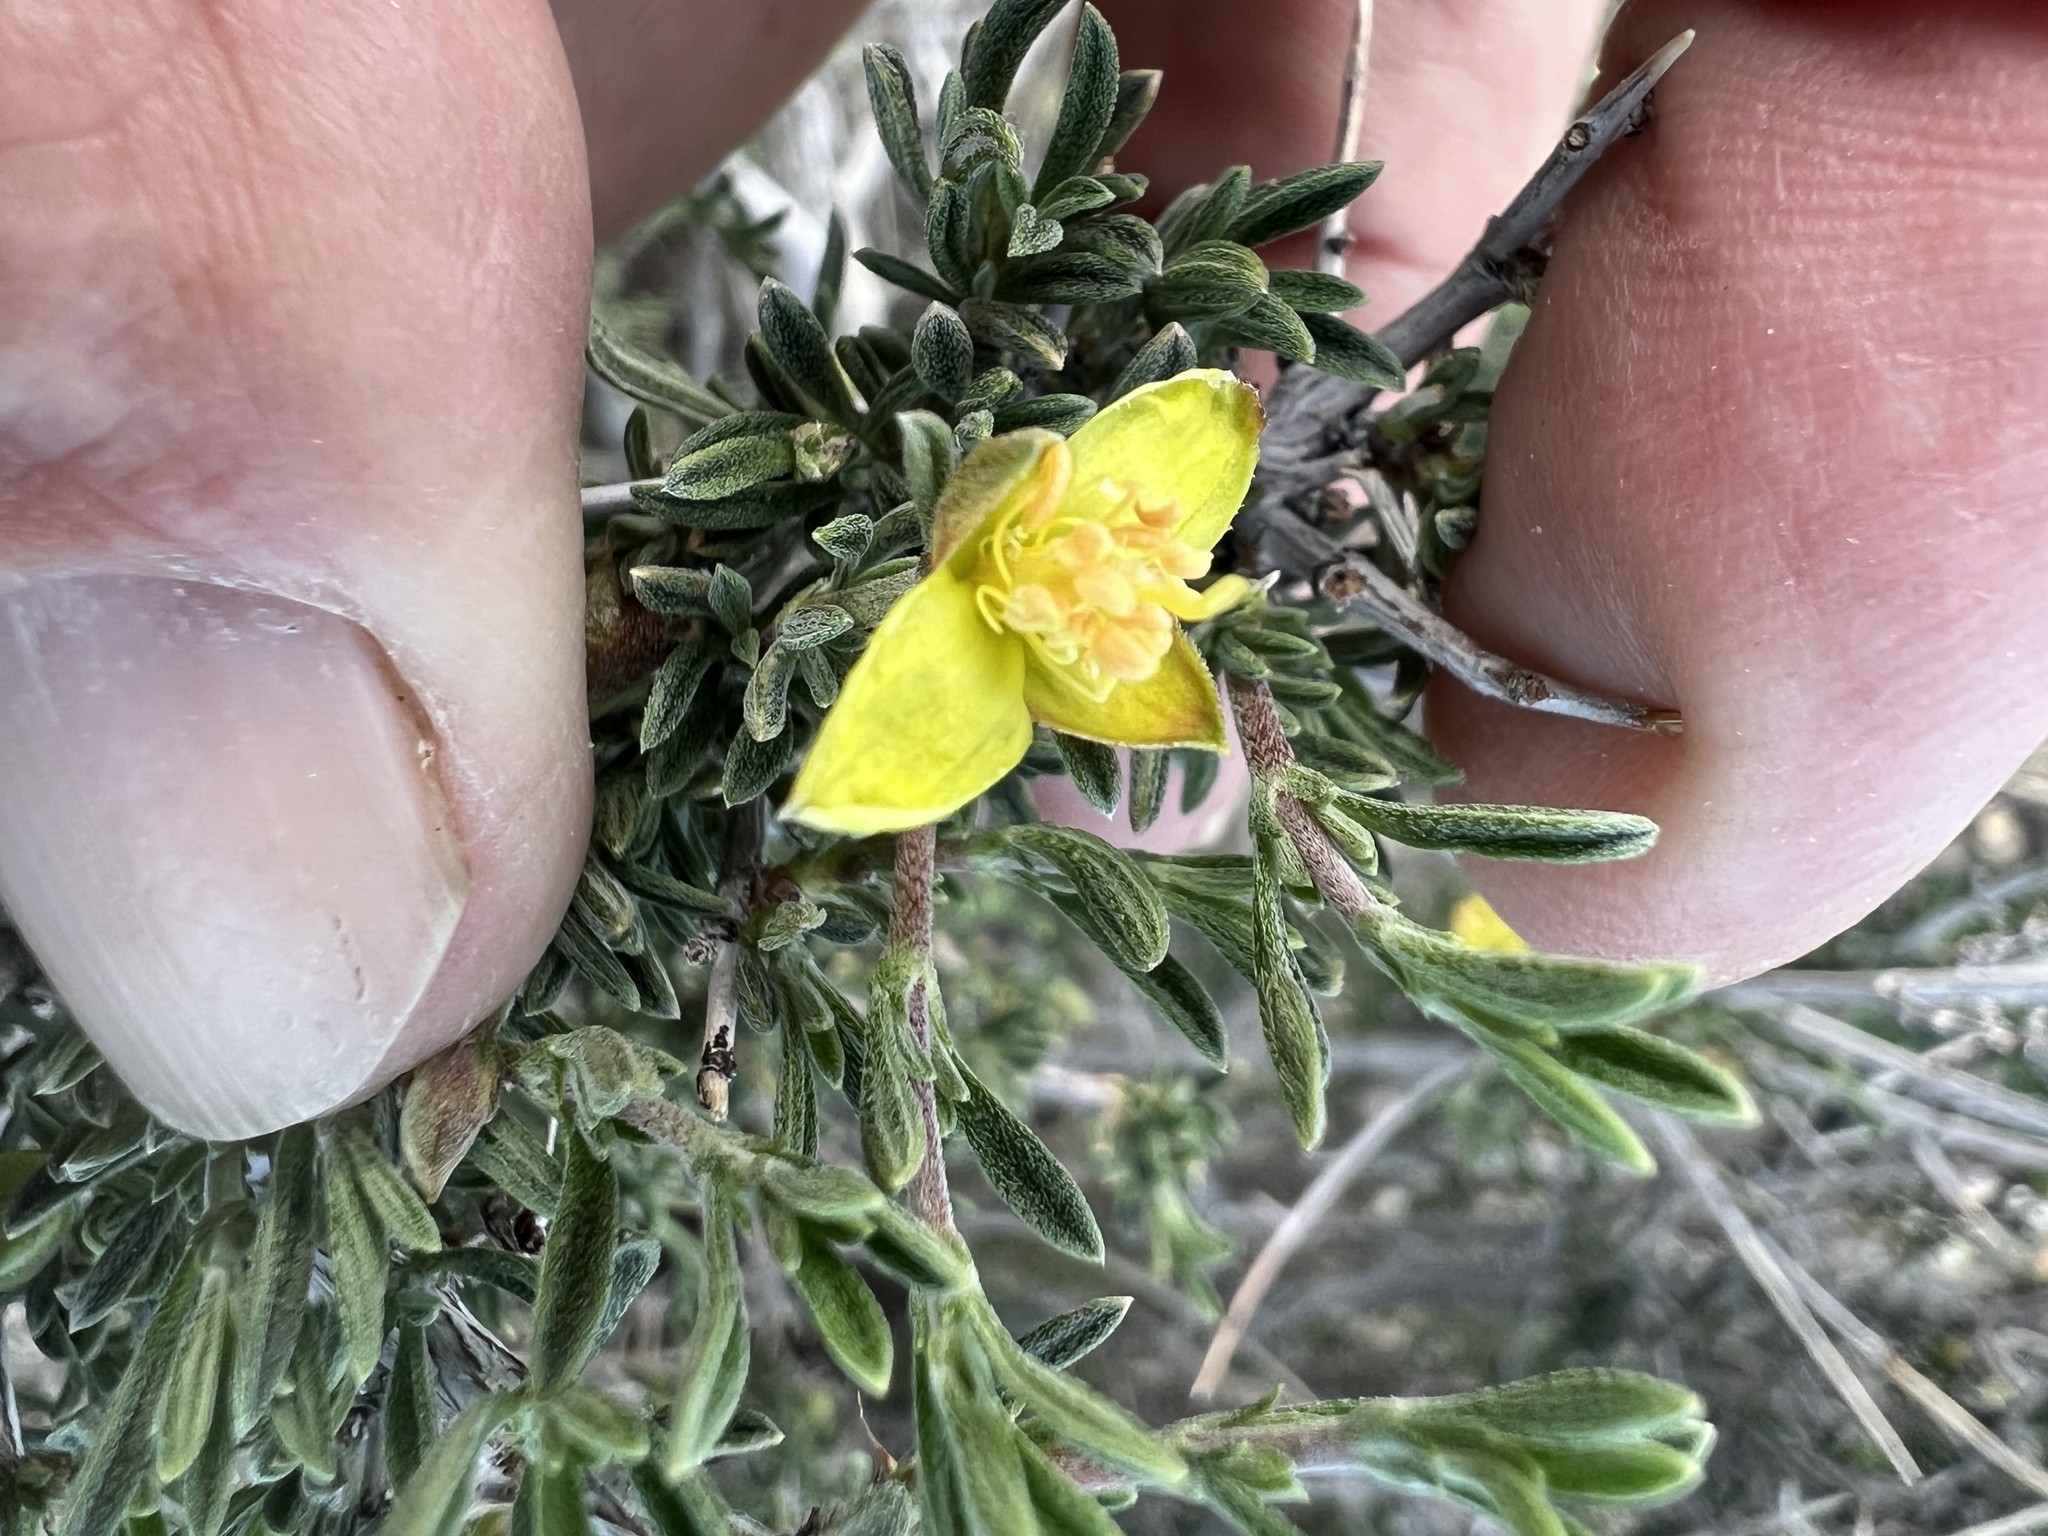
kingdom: Plantae
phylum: Tracheophyta
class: Magnoliopsida
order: Rosales
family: Rosaceae
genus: Coleogyne
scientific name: Coleogyne ramosissima
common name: Blackbrush
